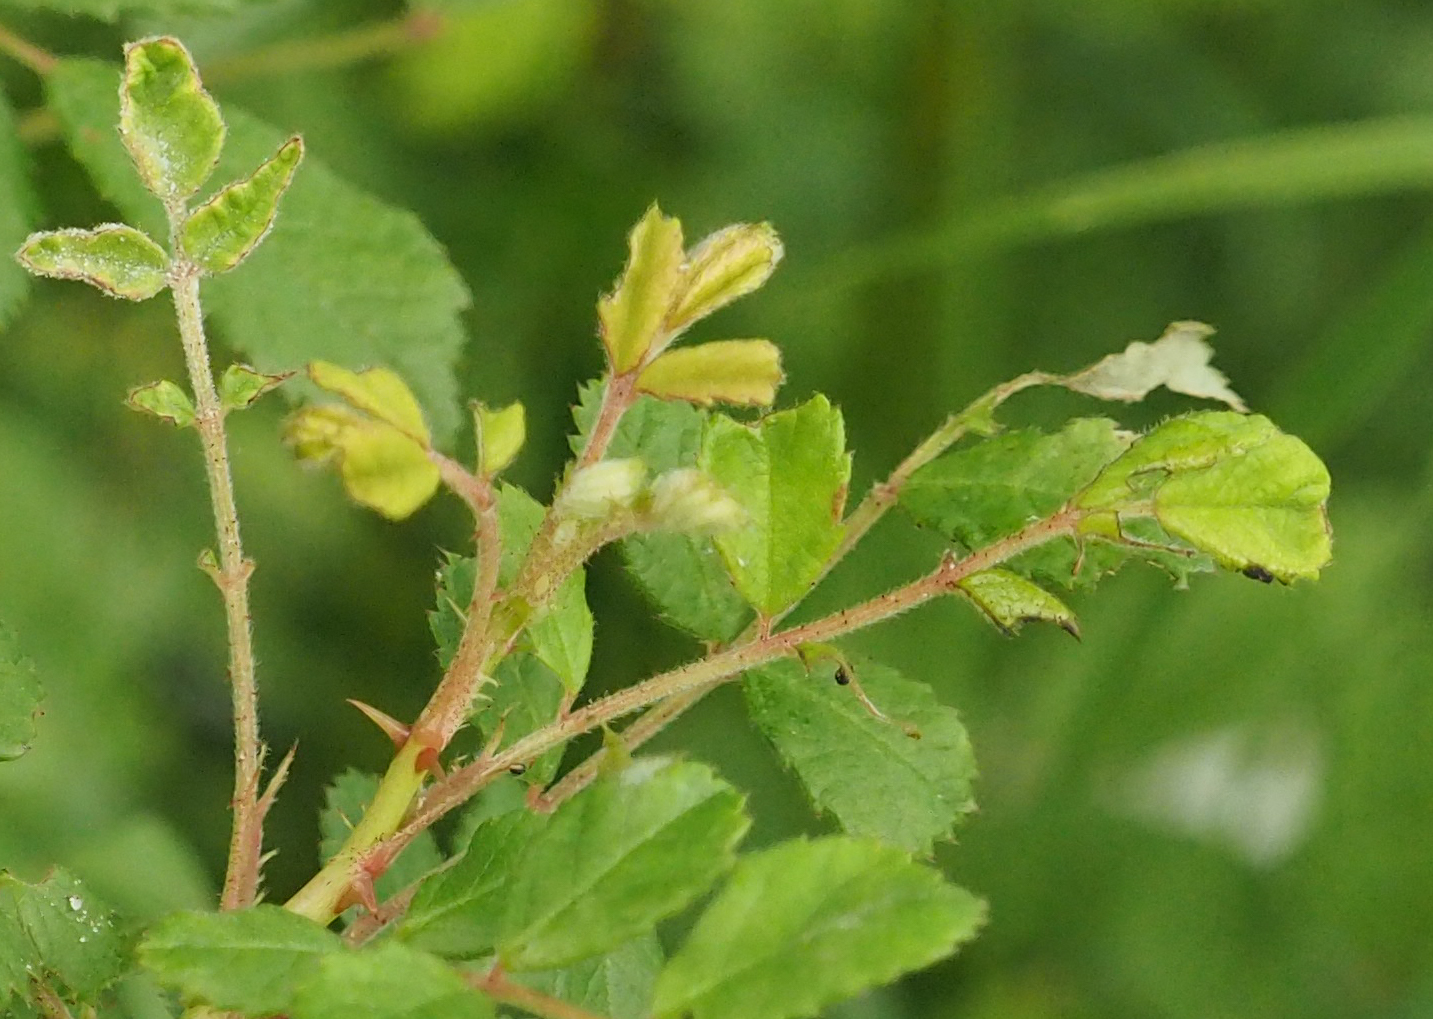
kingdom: Plantae
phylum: Tracheophyta
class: Magnoliopsida
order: Rosales
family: Rosaceae
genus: Rosa
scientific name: Rosa multiflora
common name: Multiflora rose
